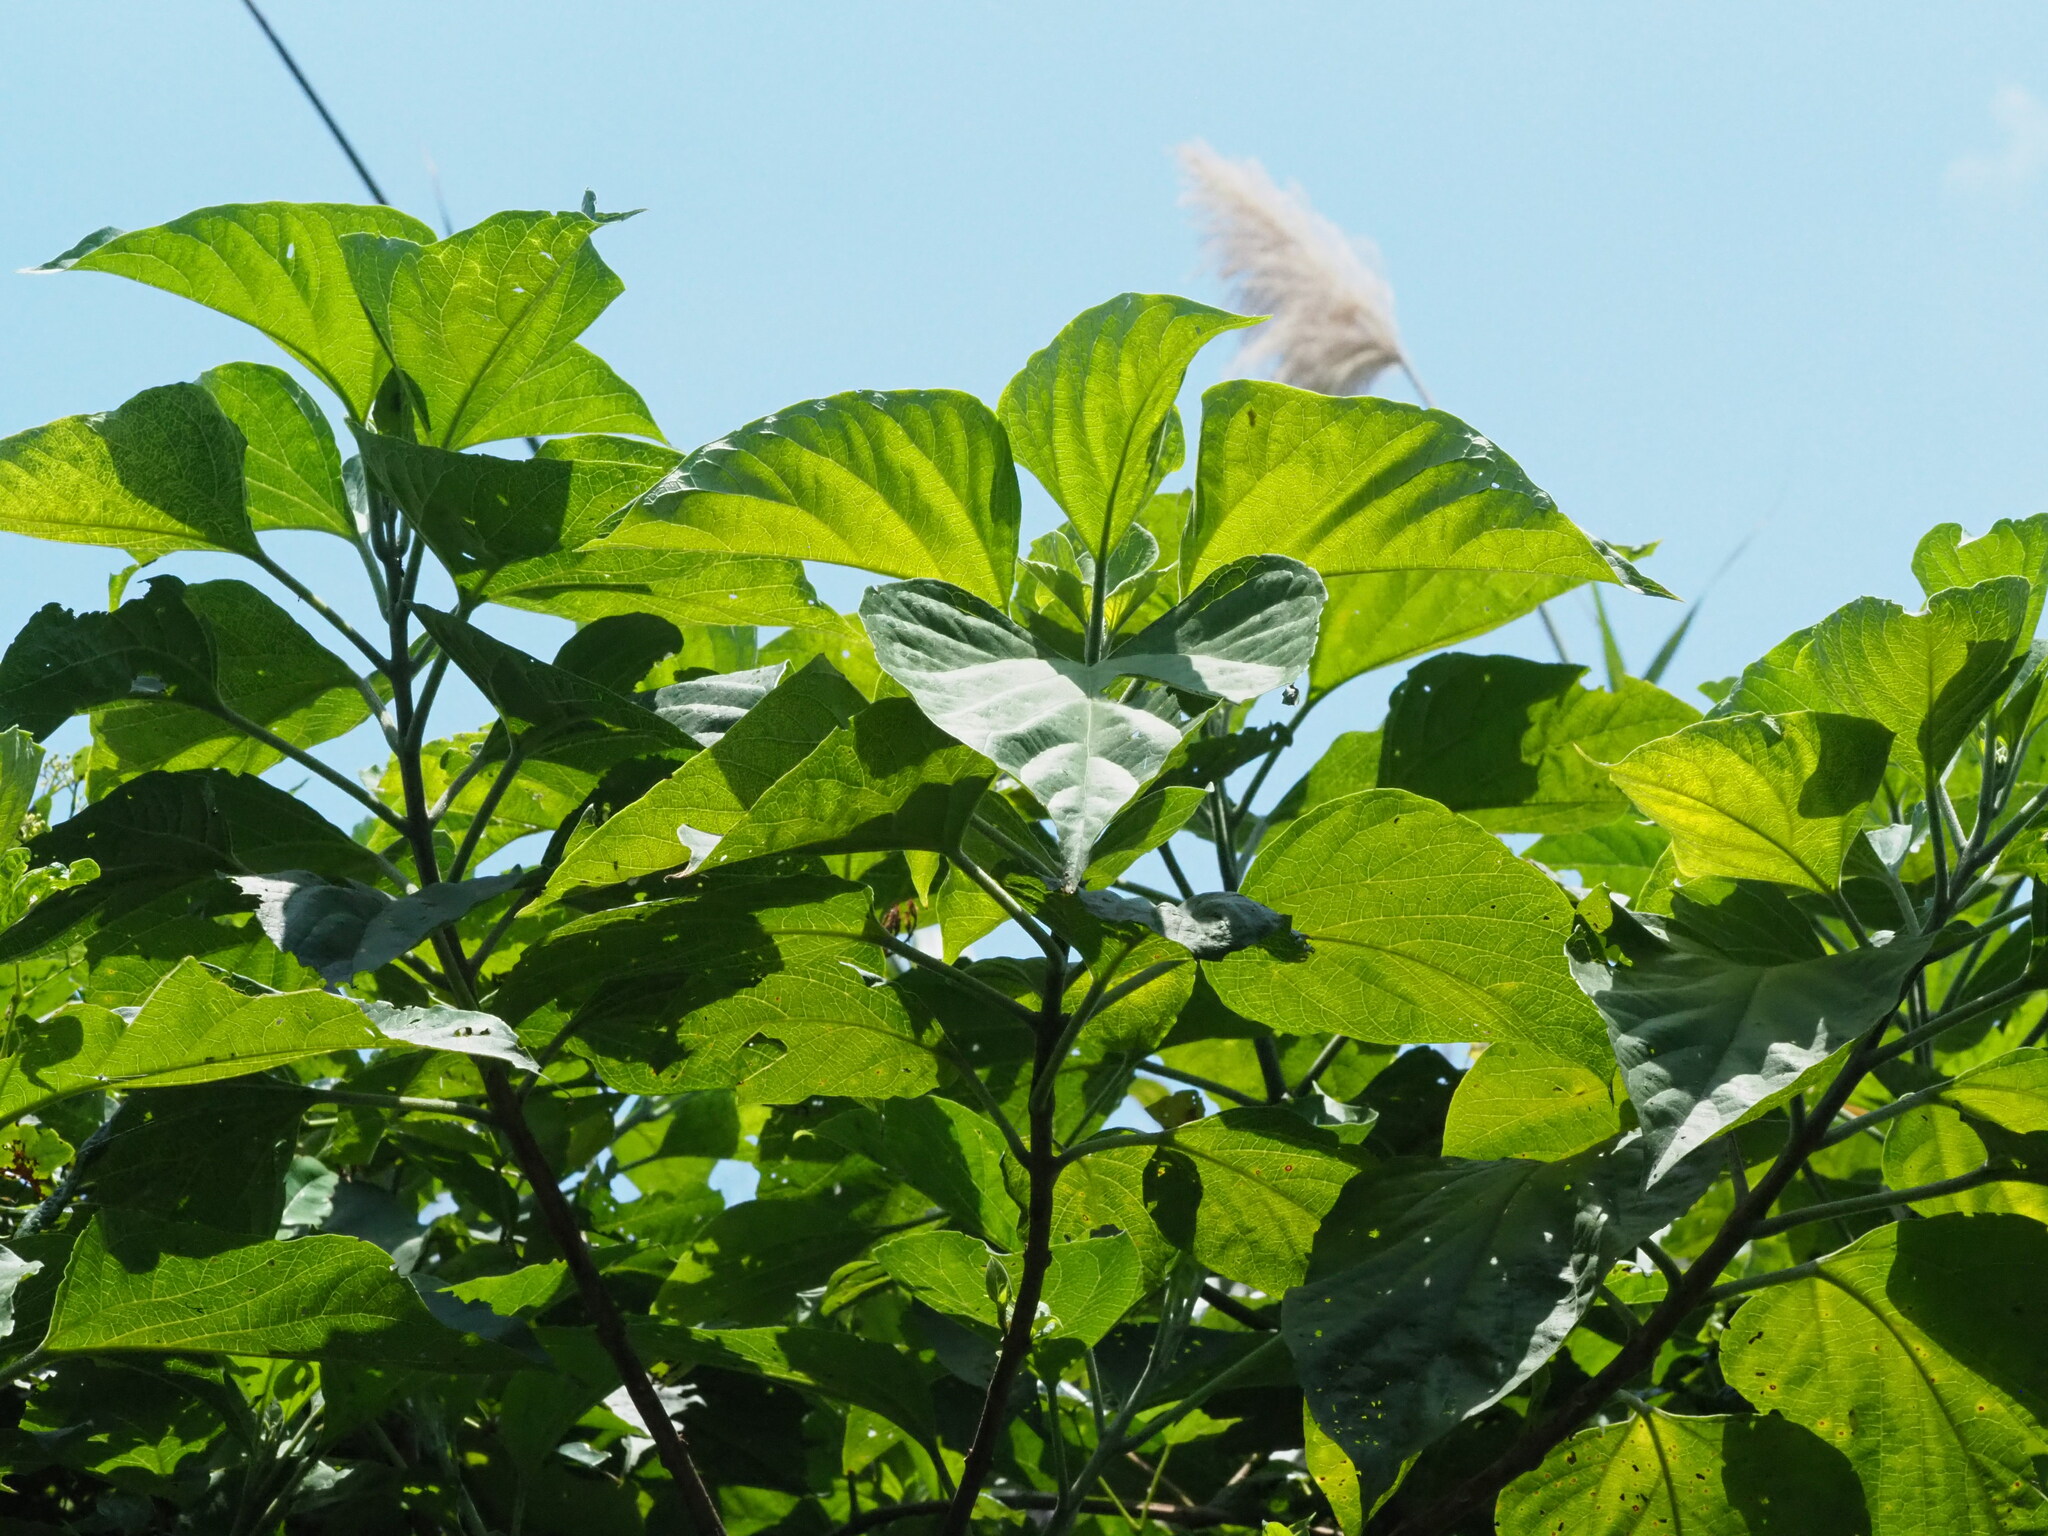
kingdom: Plantae
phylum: Tracheophyta
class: Magnoliopsida
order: Lamiales
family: Lamiaceae
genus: Clerodendrum
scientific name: Clerodendrum trichotomum
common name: Harlequin glorybower
